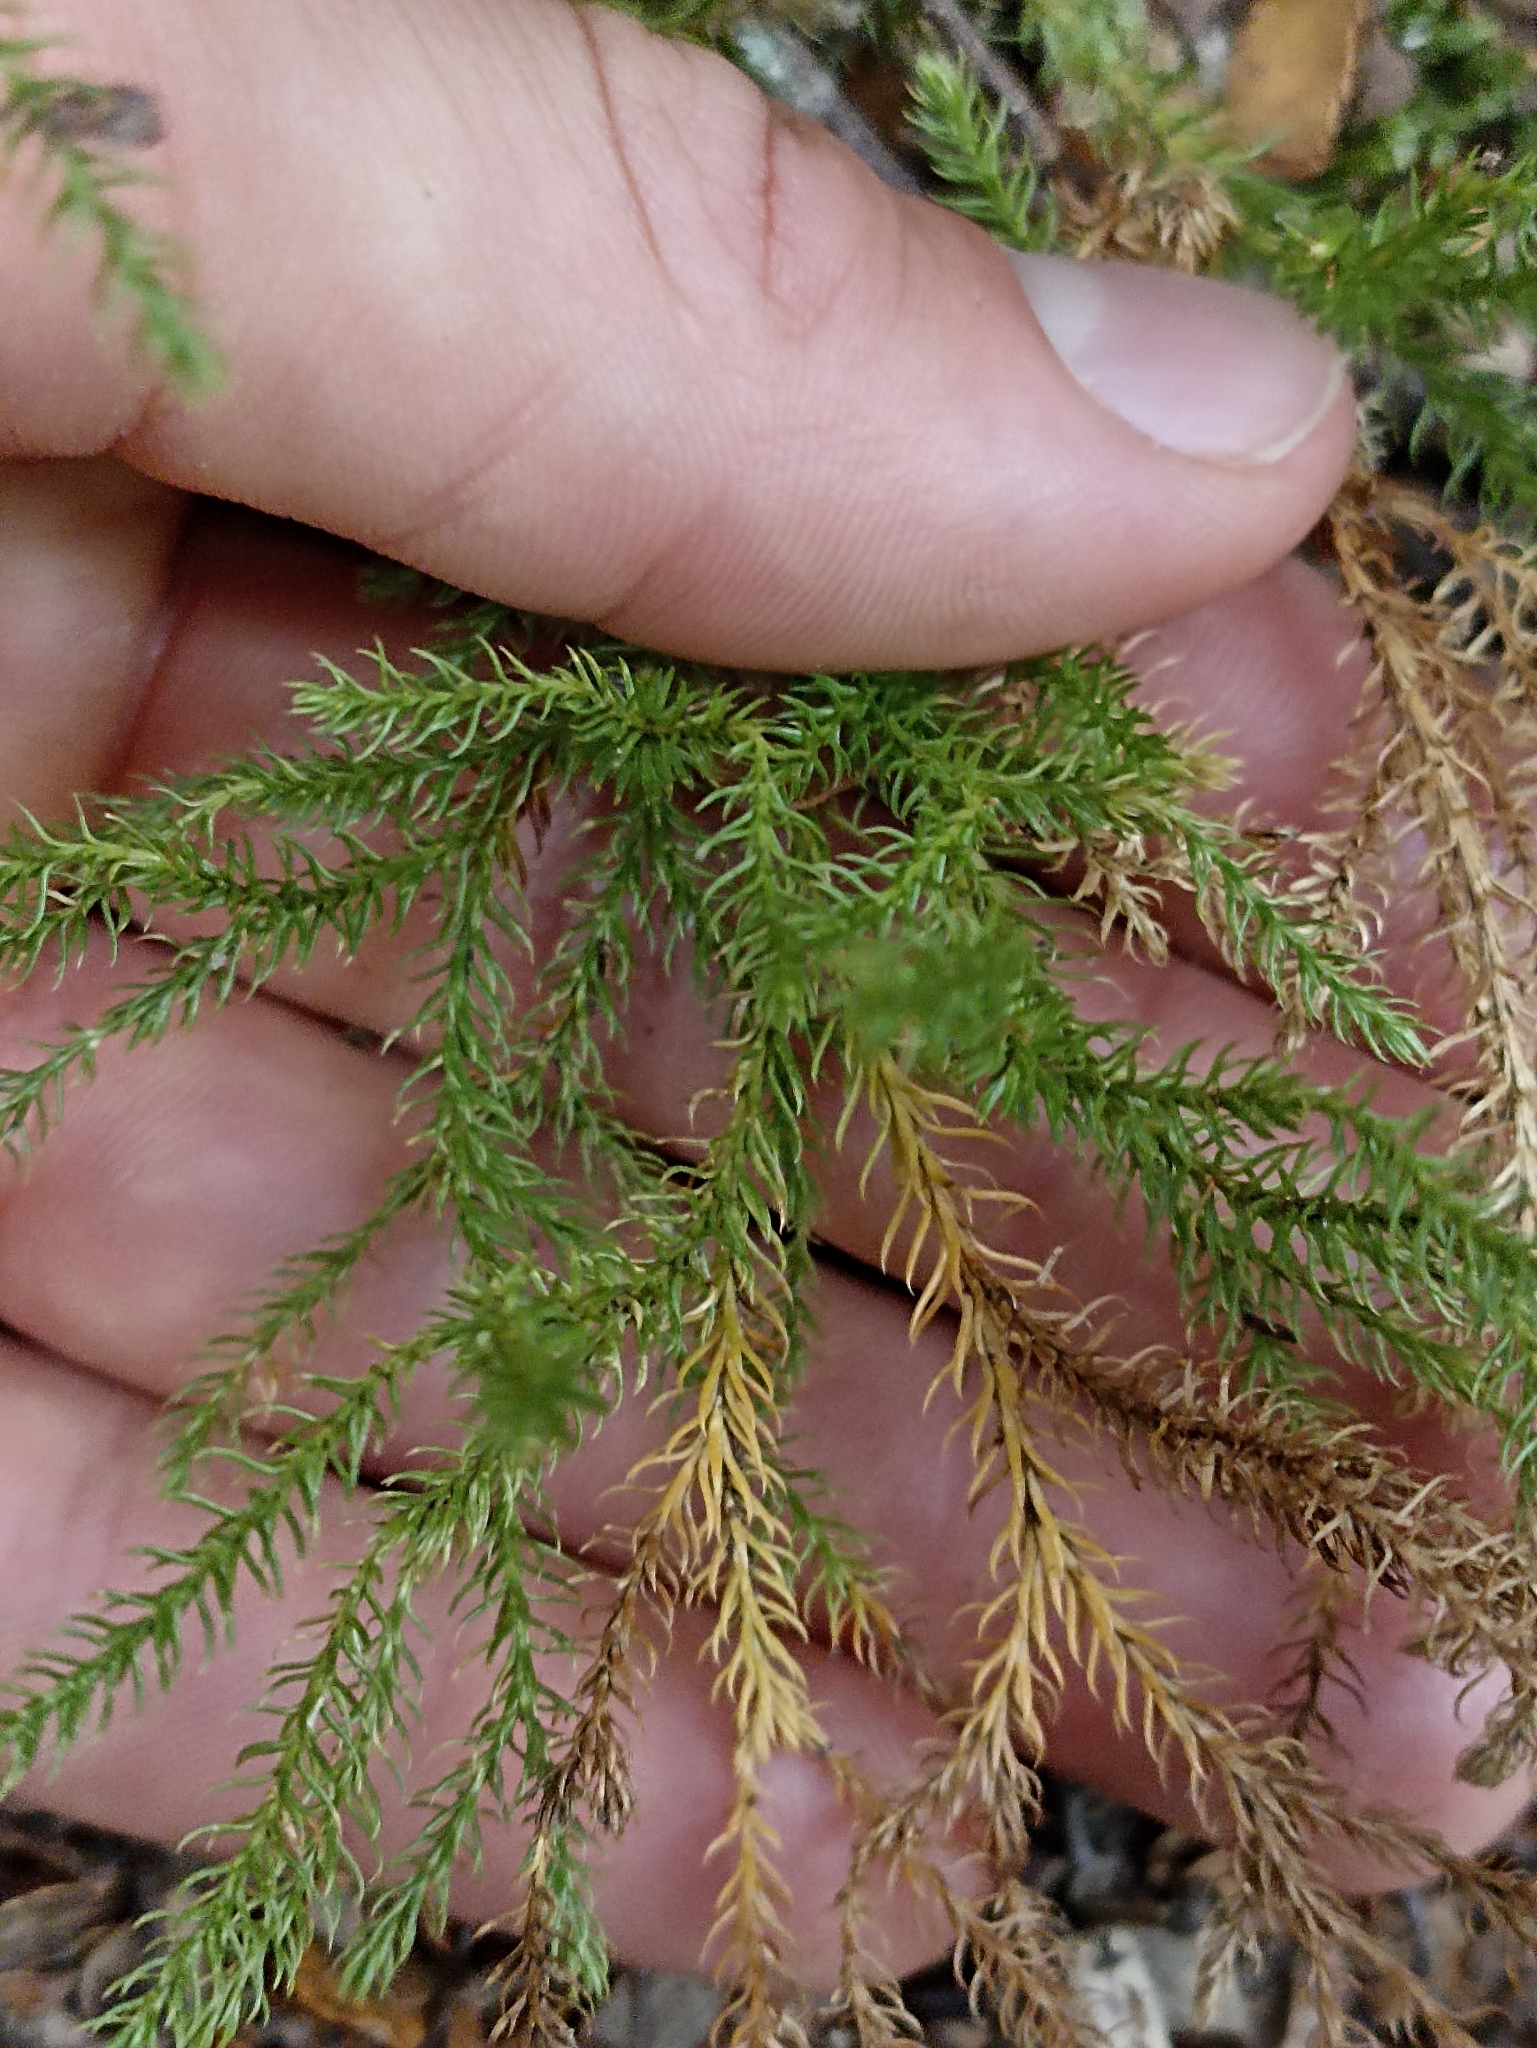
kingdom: Plantae
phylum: Tracheophyta
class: Lycopodiopsida
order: Lycopodiales
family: Lycopodiaceae
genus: Austrolycopodium
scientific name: Austrolycopodium fastigiatum
